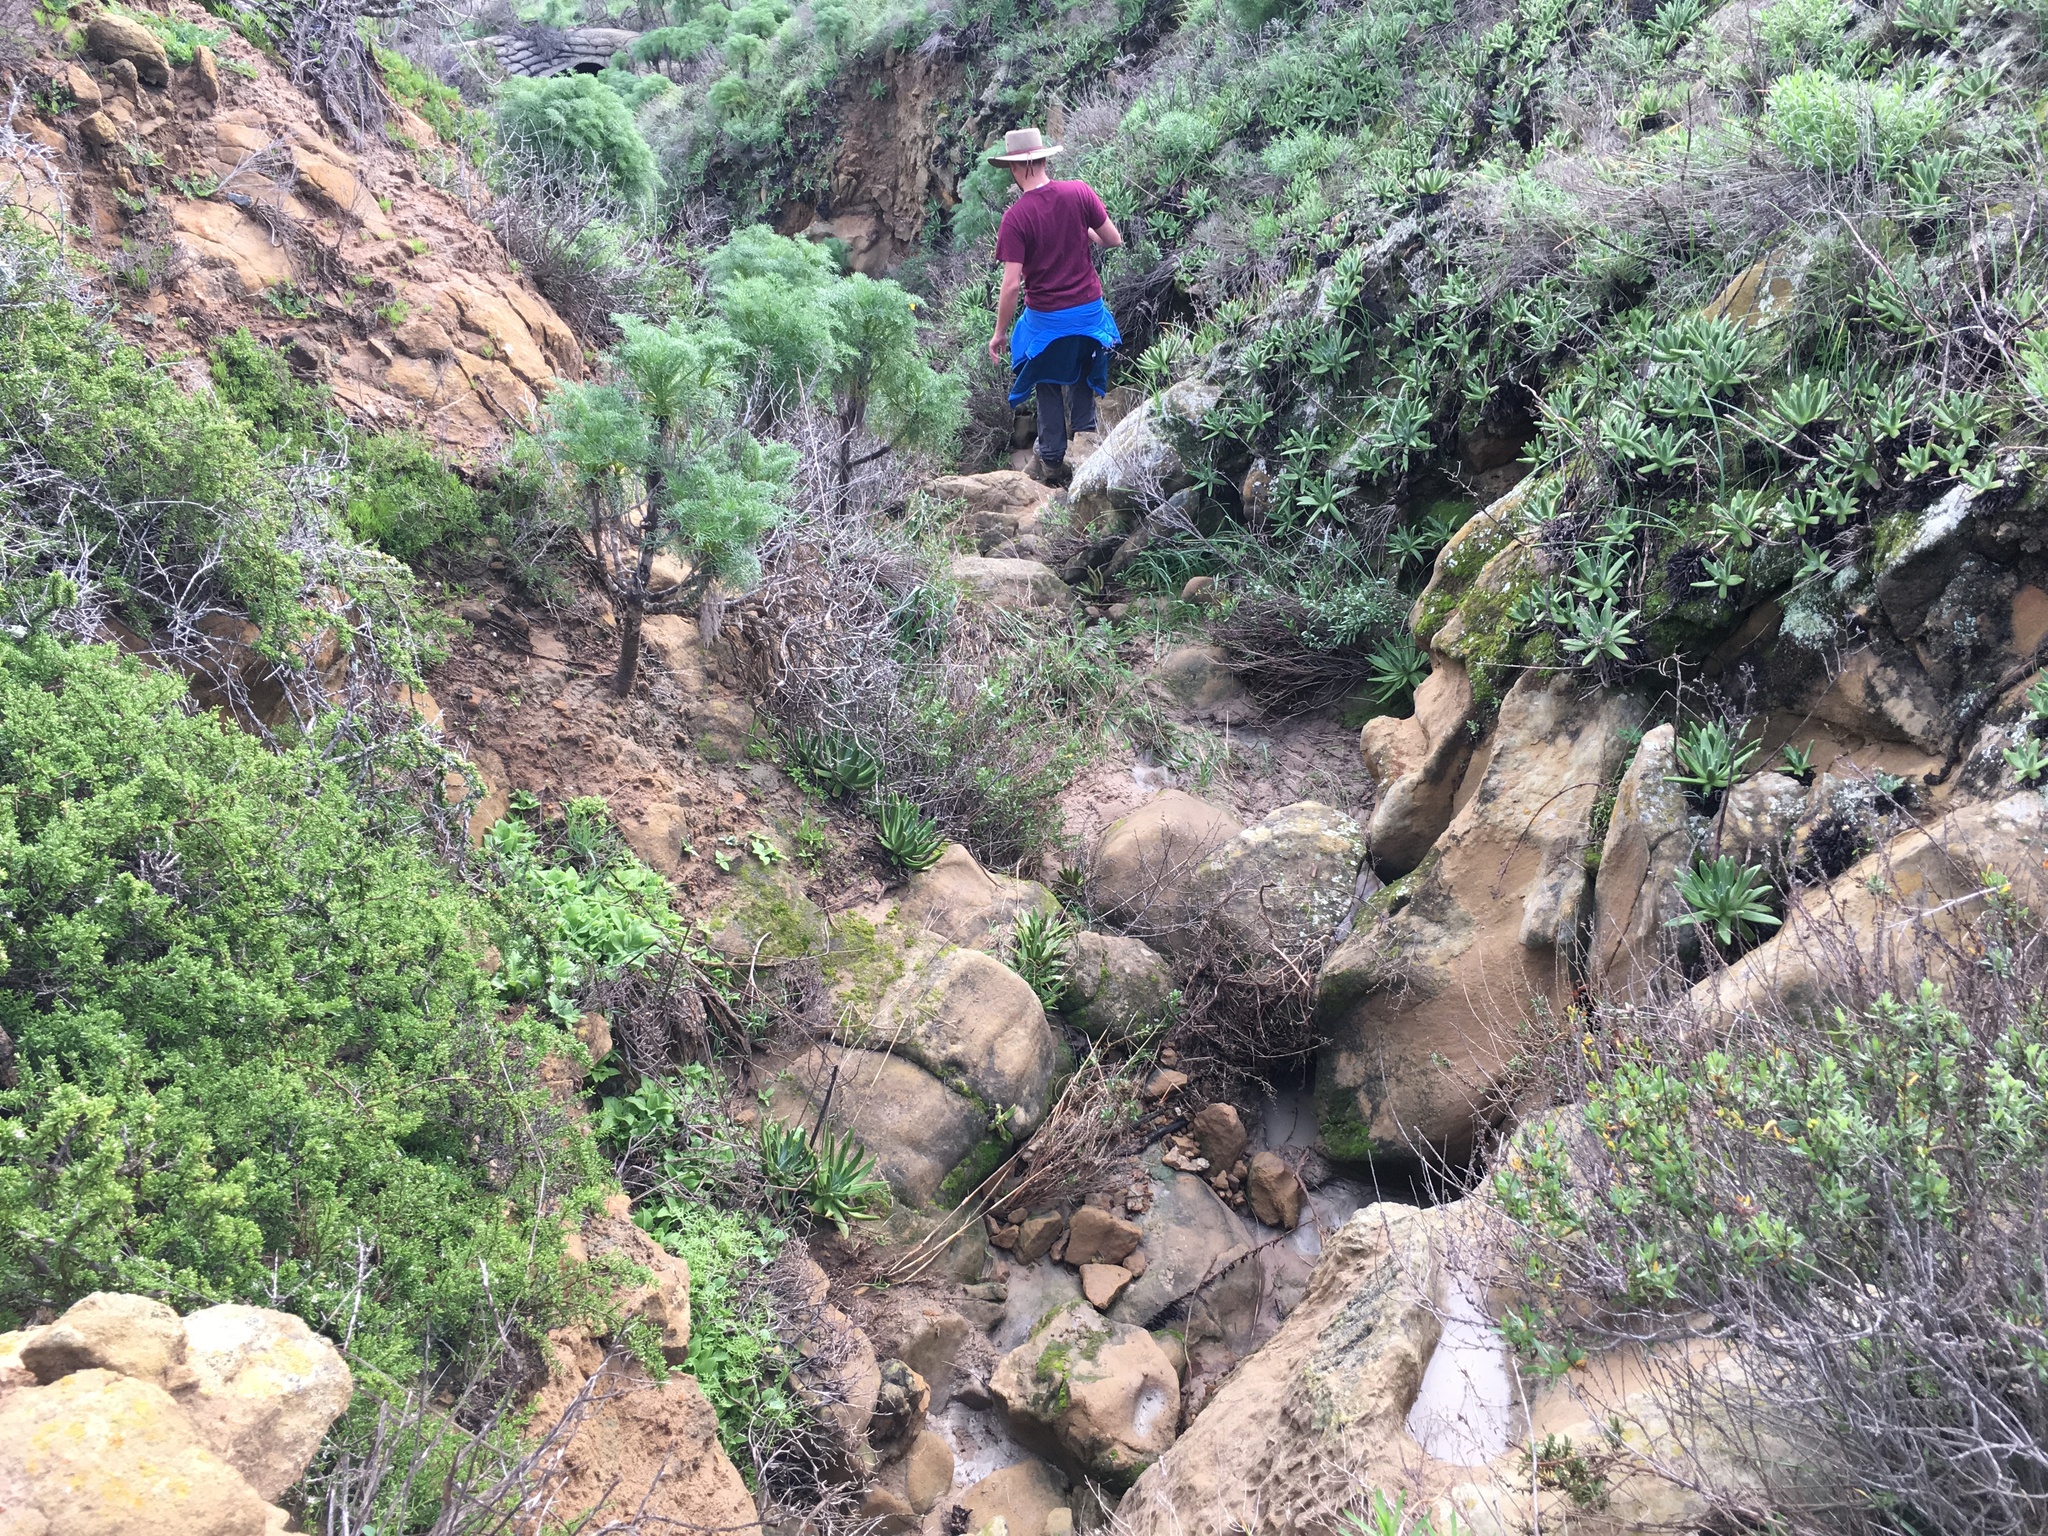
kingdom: Plantae
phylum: Tracheophyta
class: Magnoliopsida
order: Asterales
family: Asteraceae
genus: Coreopsis
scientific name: Coreopsis gigantea
